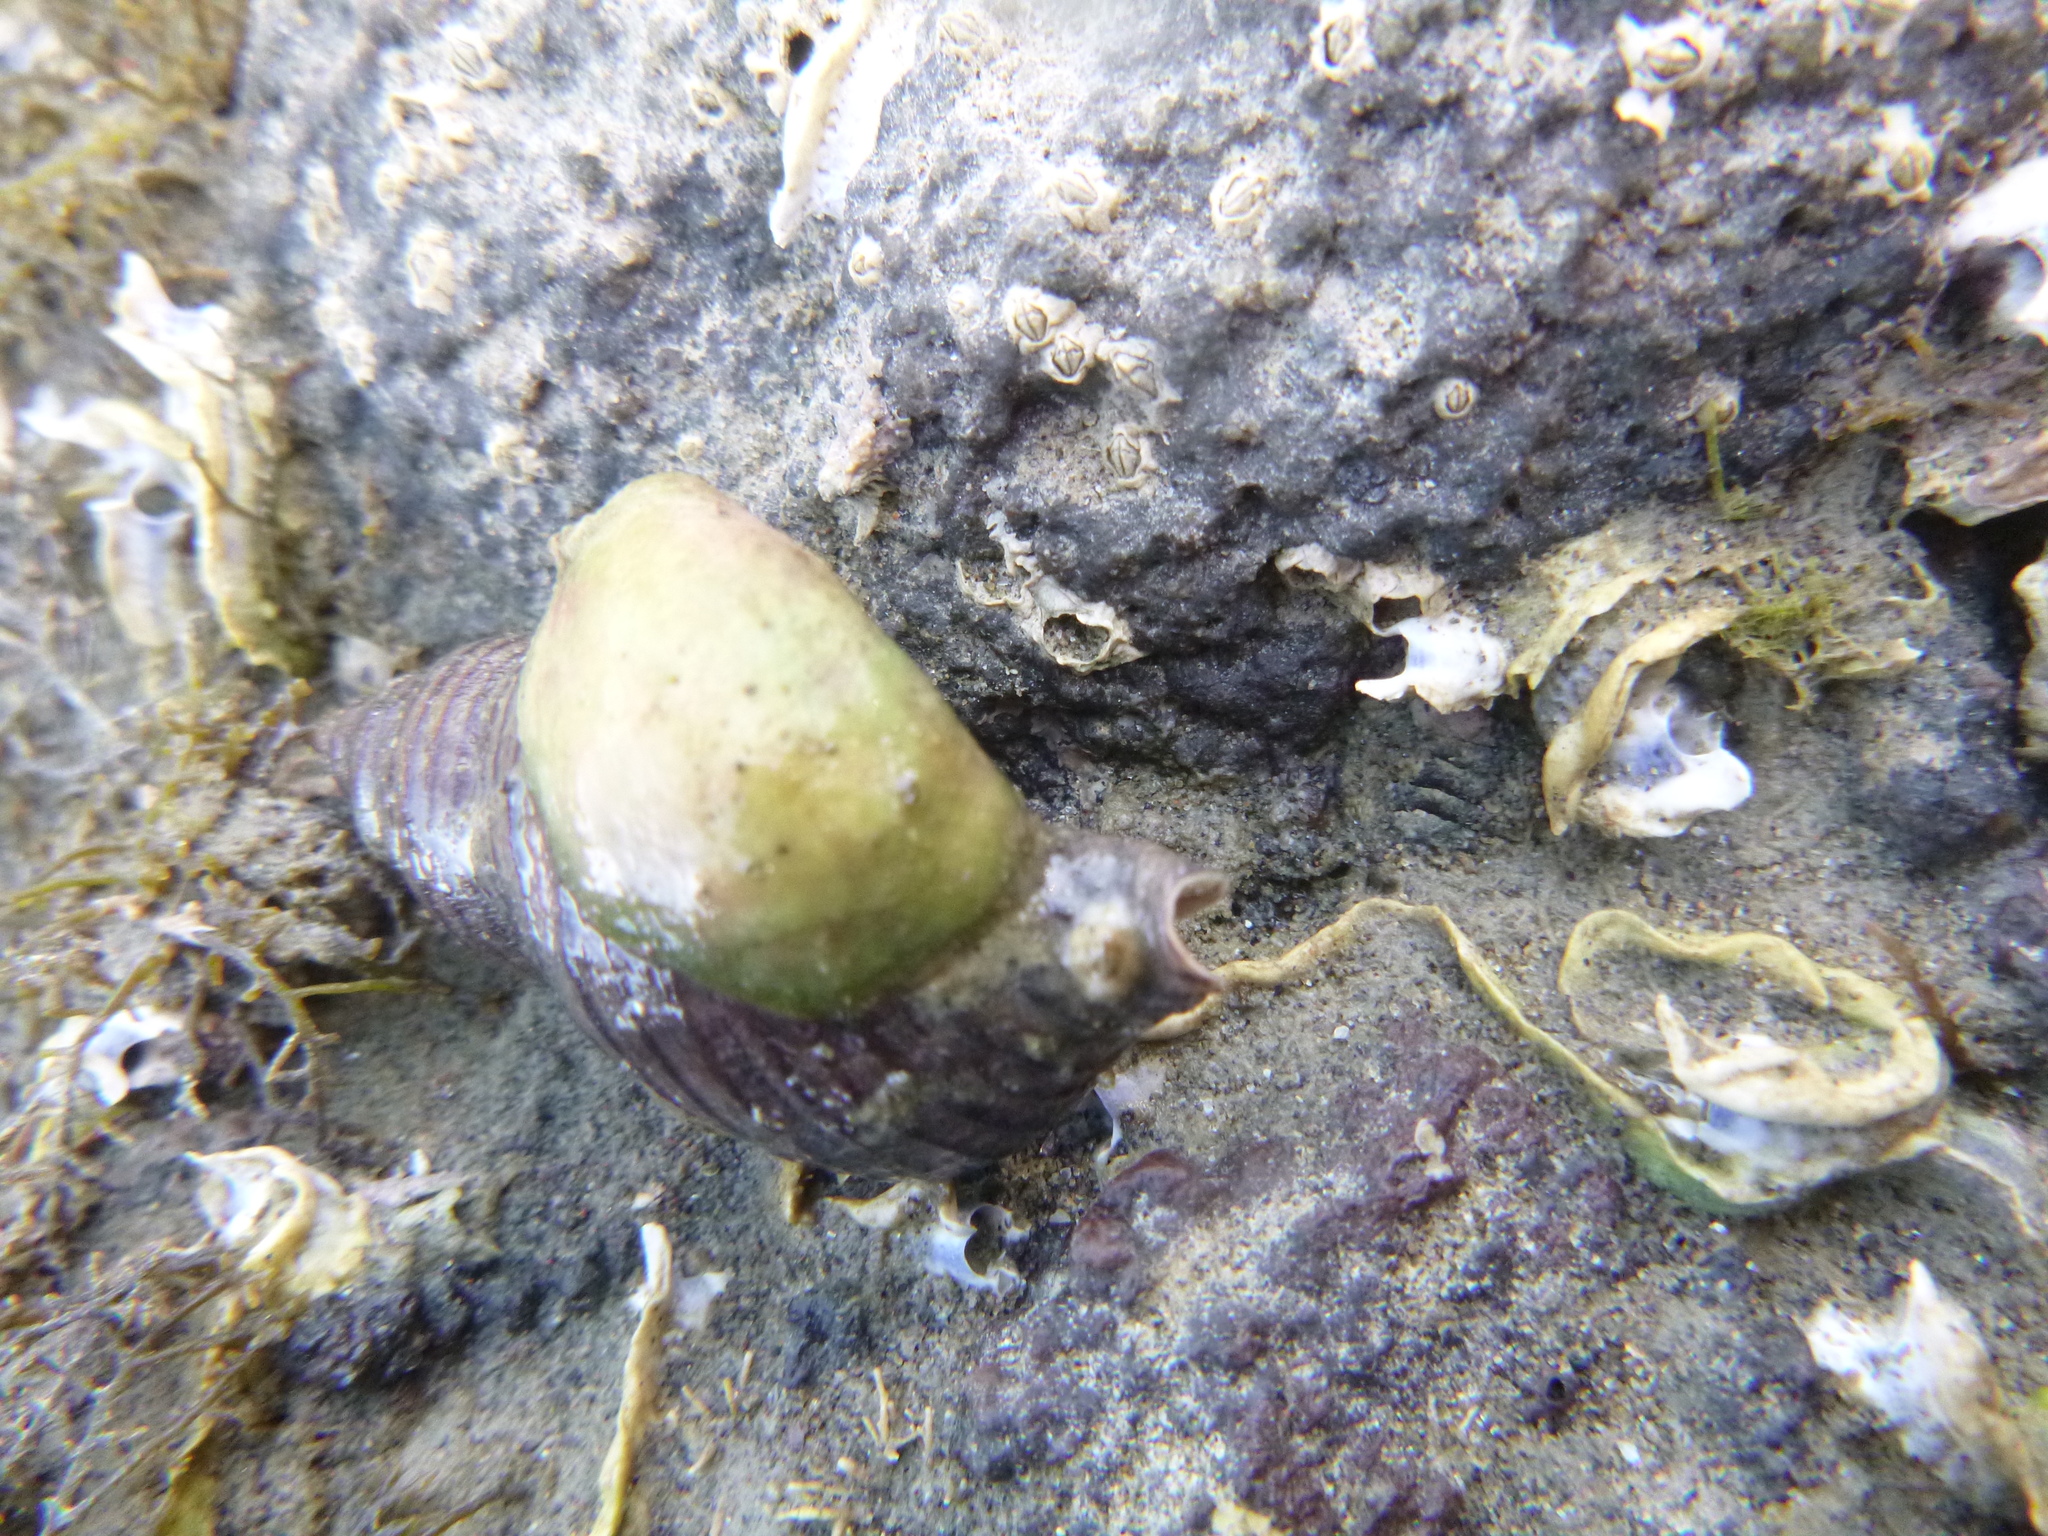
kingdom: Animalia
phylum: Mollusca
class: Gastropoda
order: Littorinimorpha
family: Calyptraeidae
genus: Maoricrypta
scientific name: Maoricrypta monoxyla
